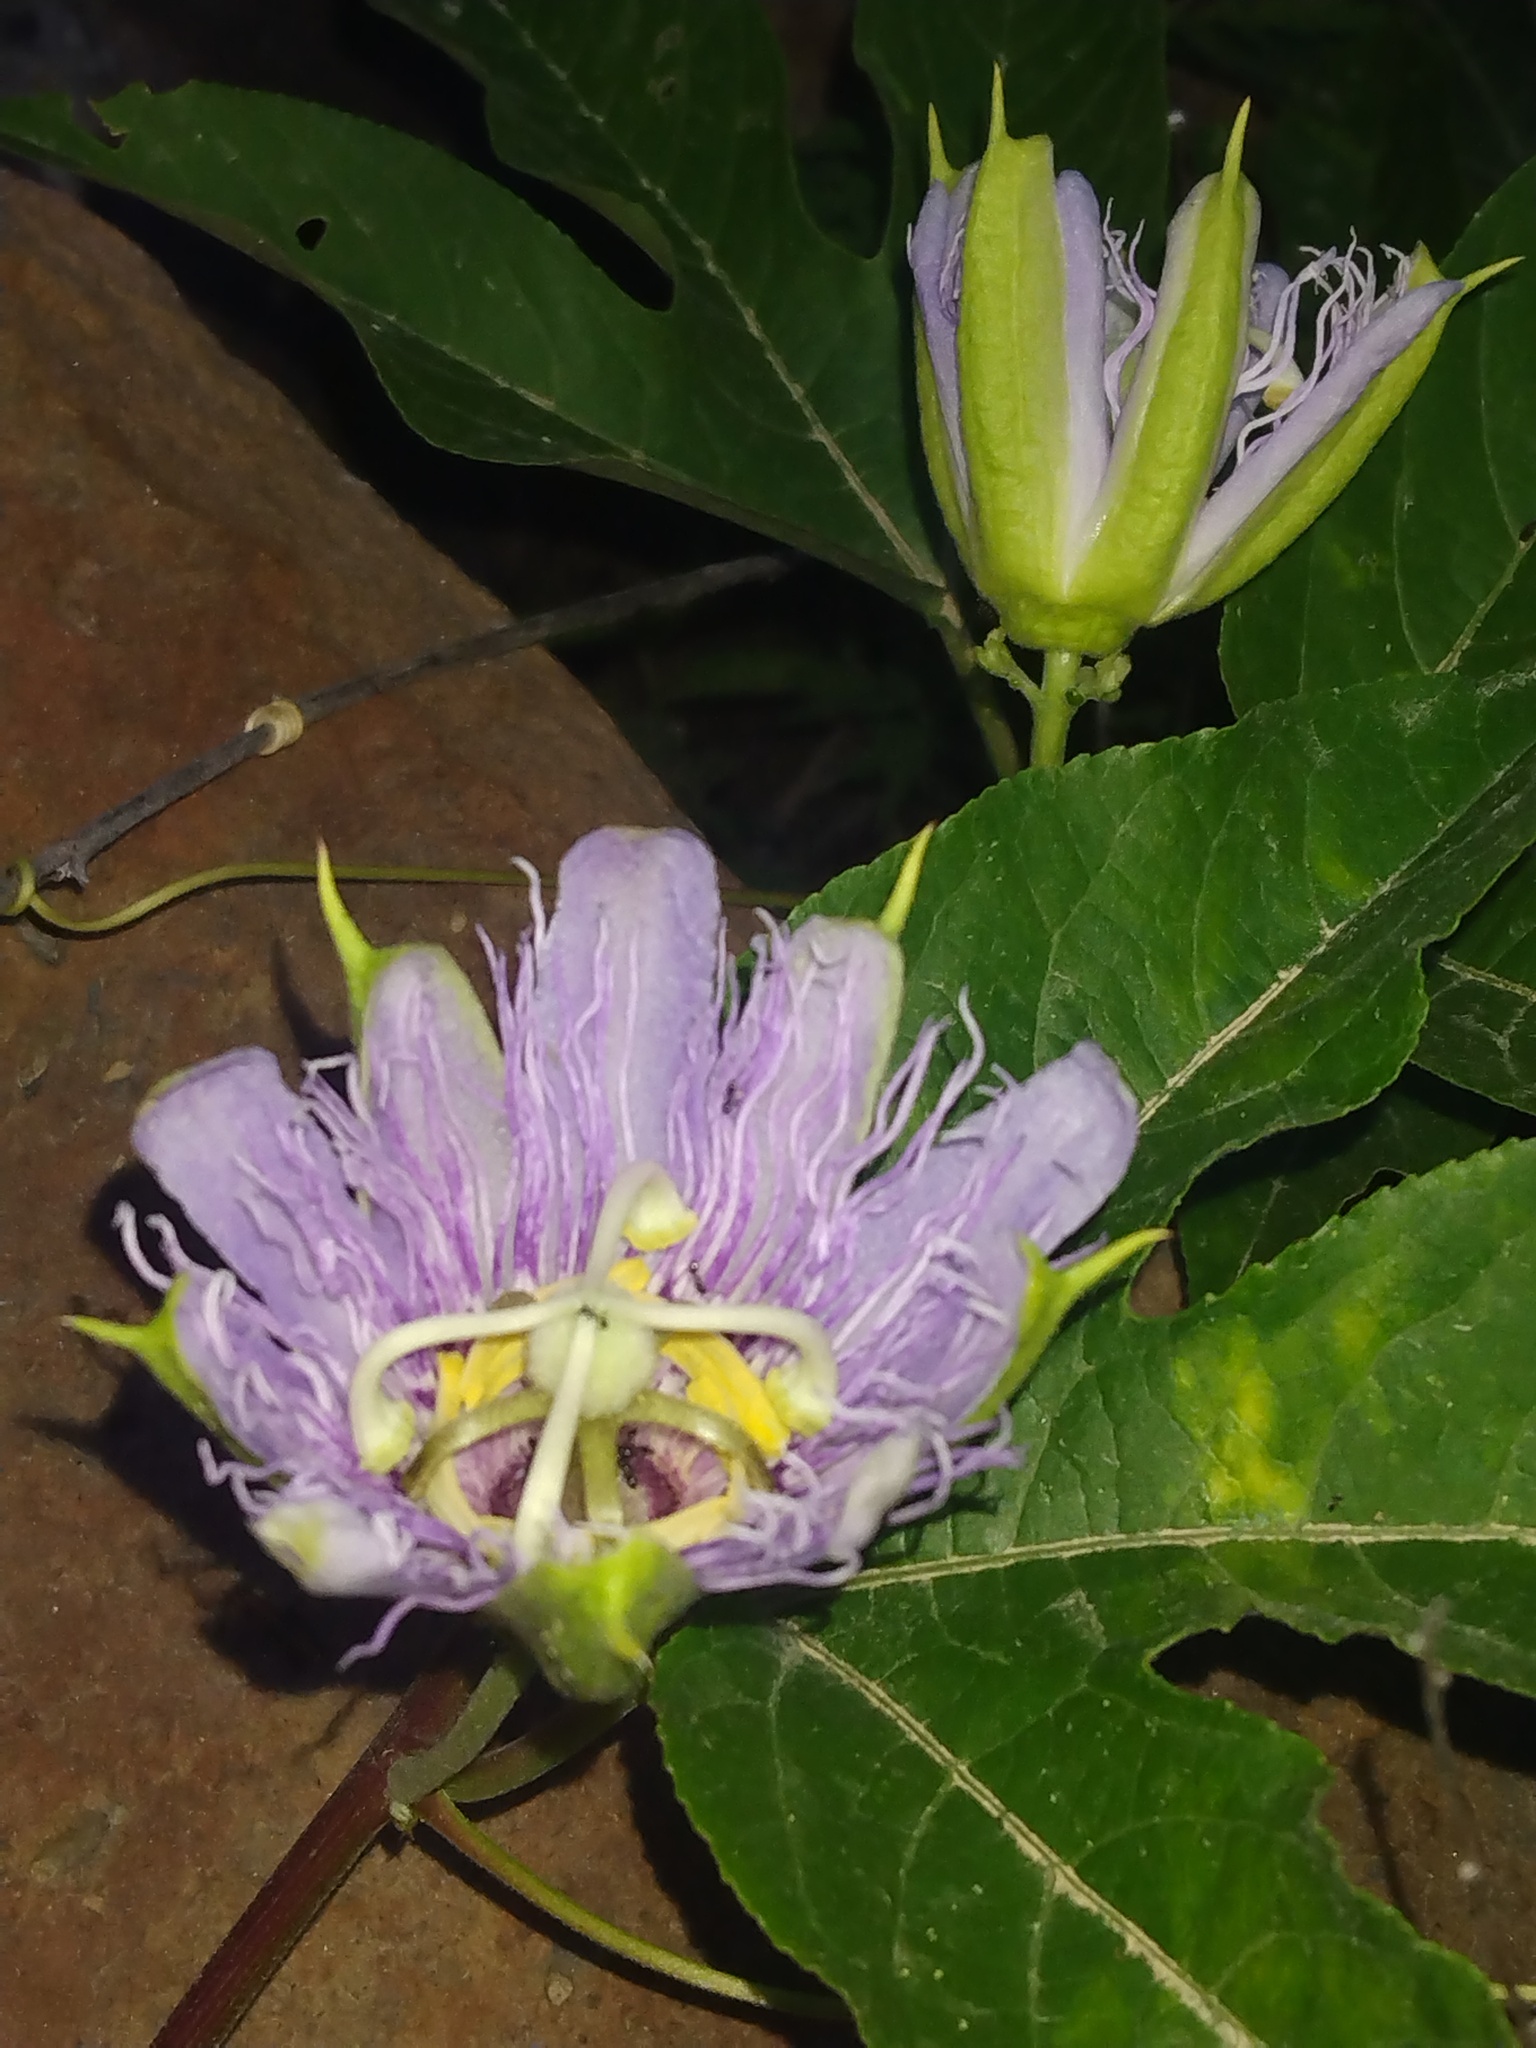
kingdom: Plantae
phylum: Tracheophyta
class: Magnoliopsida
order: Malpighiales
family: Passifloraceae
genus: Passiflora
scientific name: Passiflora incarnata
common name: Apricot-vine
